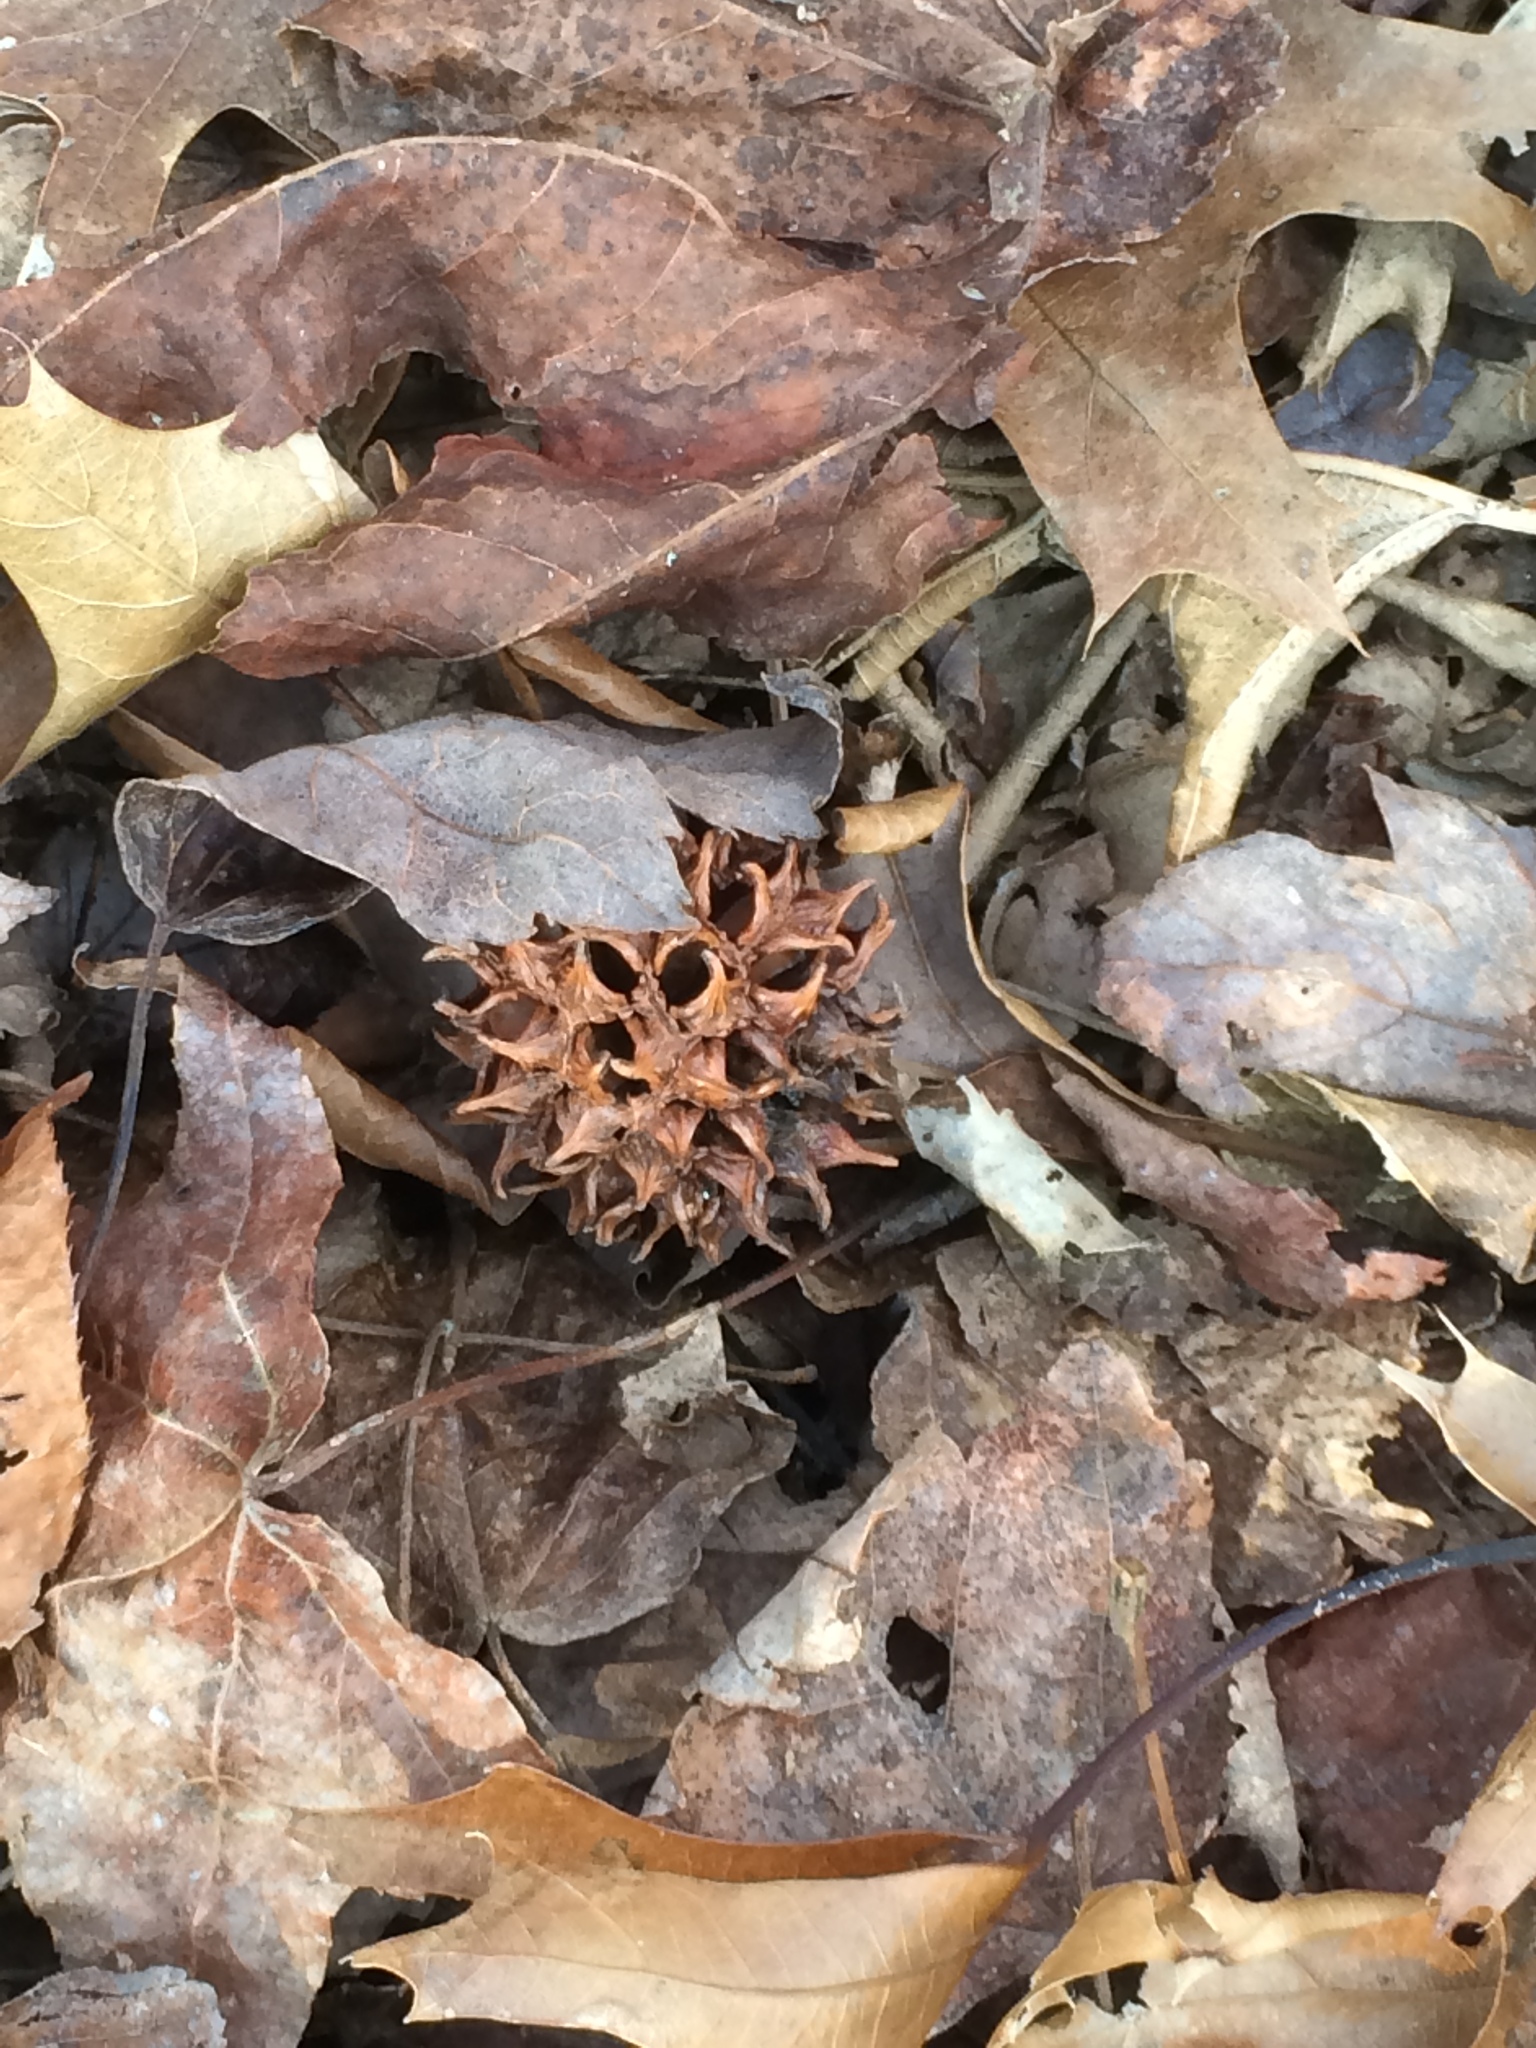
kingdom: Plantae
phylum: Tracheophyta
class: Magnoliopsida
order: Saxifragales
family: Altingiaceae
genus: Liquidambar
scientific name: Liquidambar styraciflua
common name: Sweet gum
